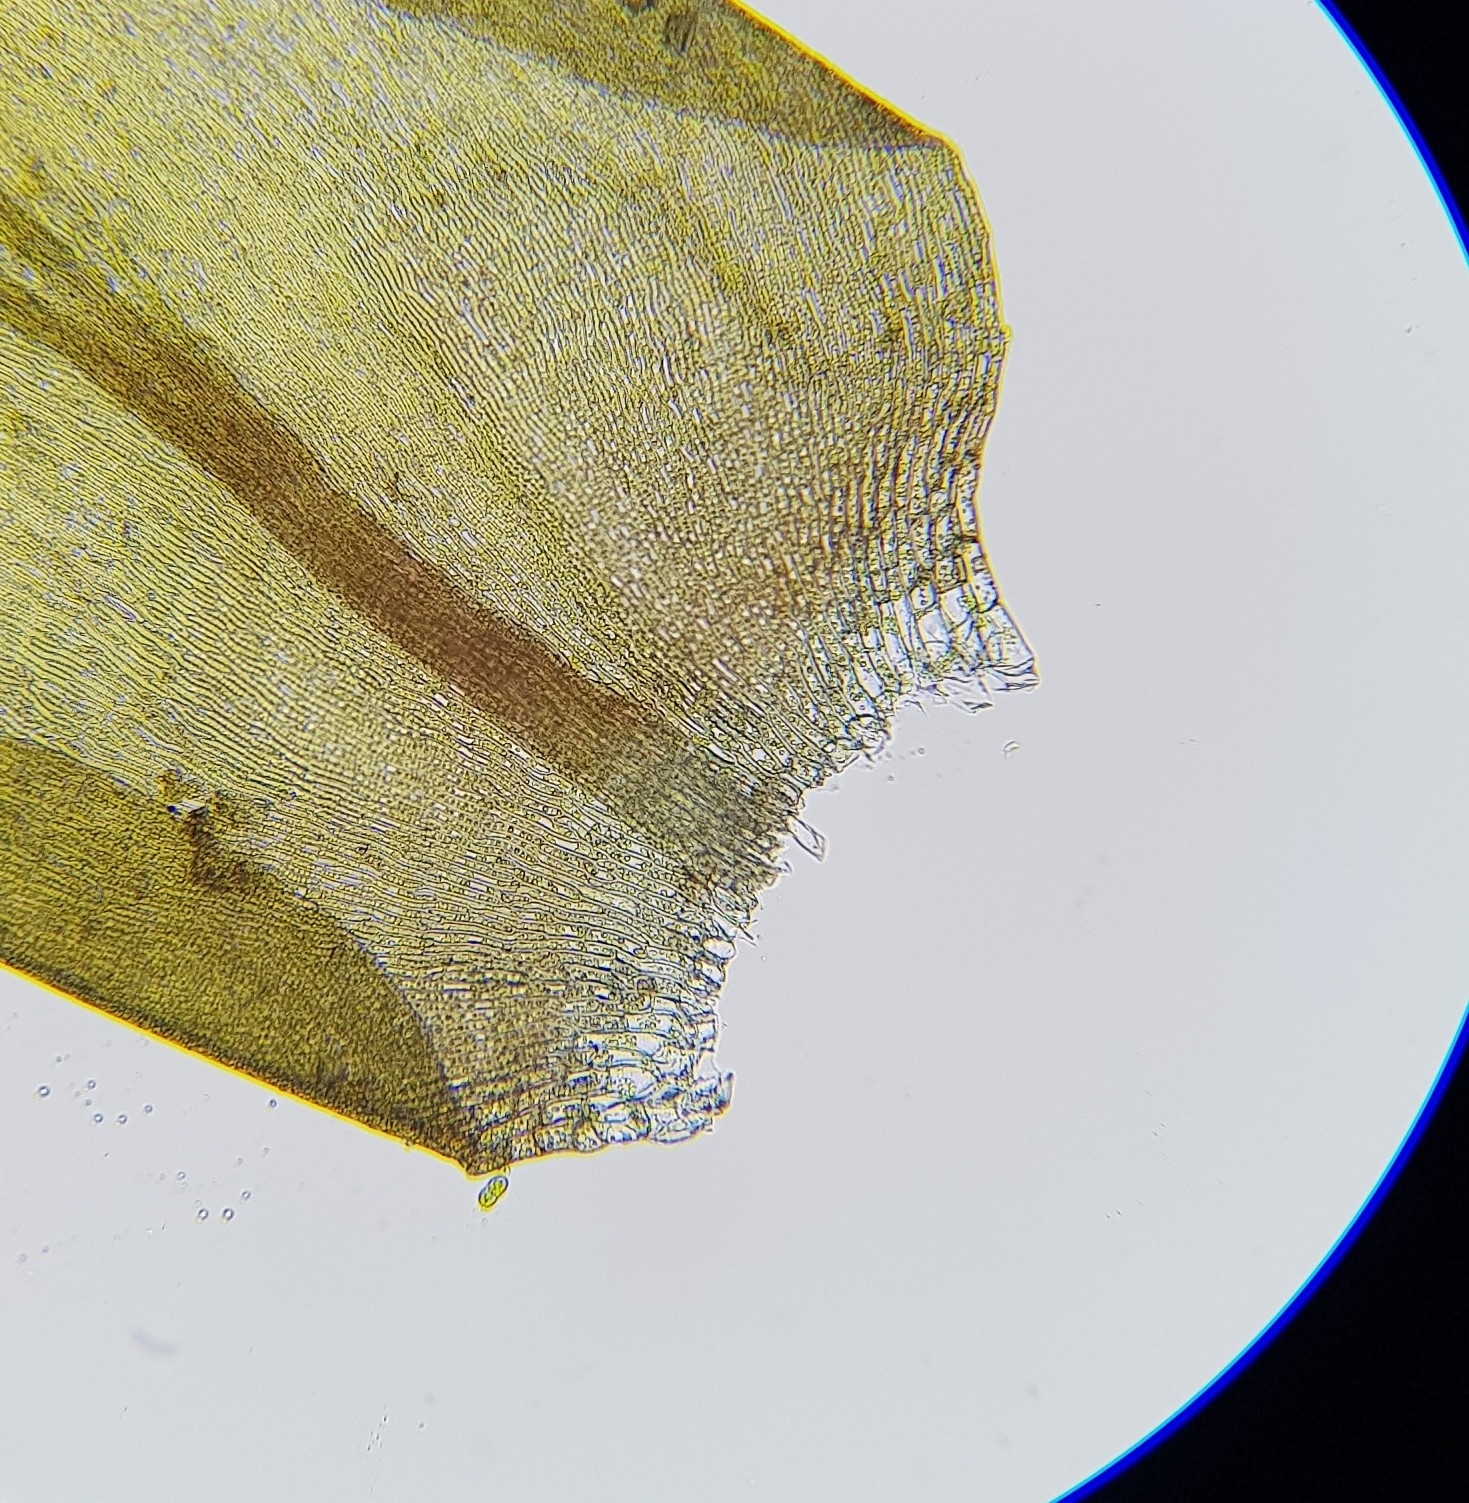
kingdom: Plantae
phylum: Bryophyta
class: Bryopsida
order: Hypnales
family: Scorpidiaceae
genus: Hygrohypnella
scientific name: Hygrohypnella ochracea
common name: Hygrohypnum moss
